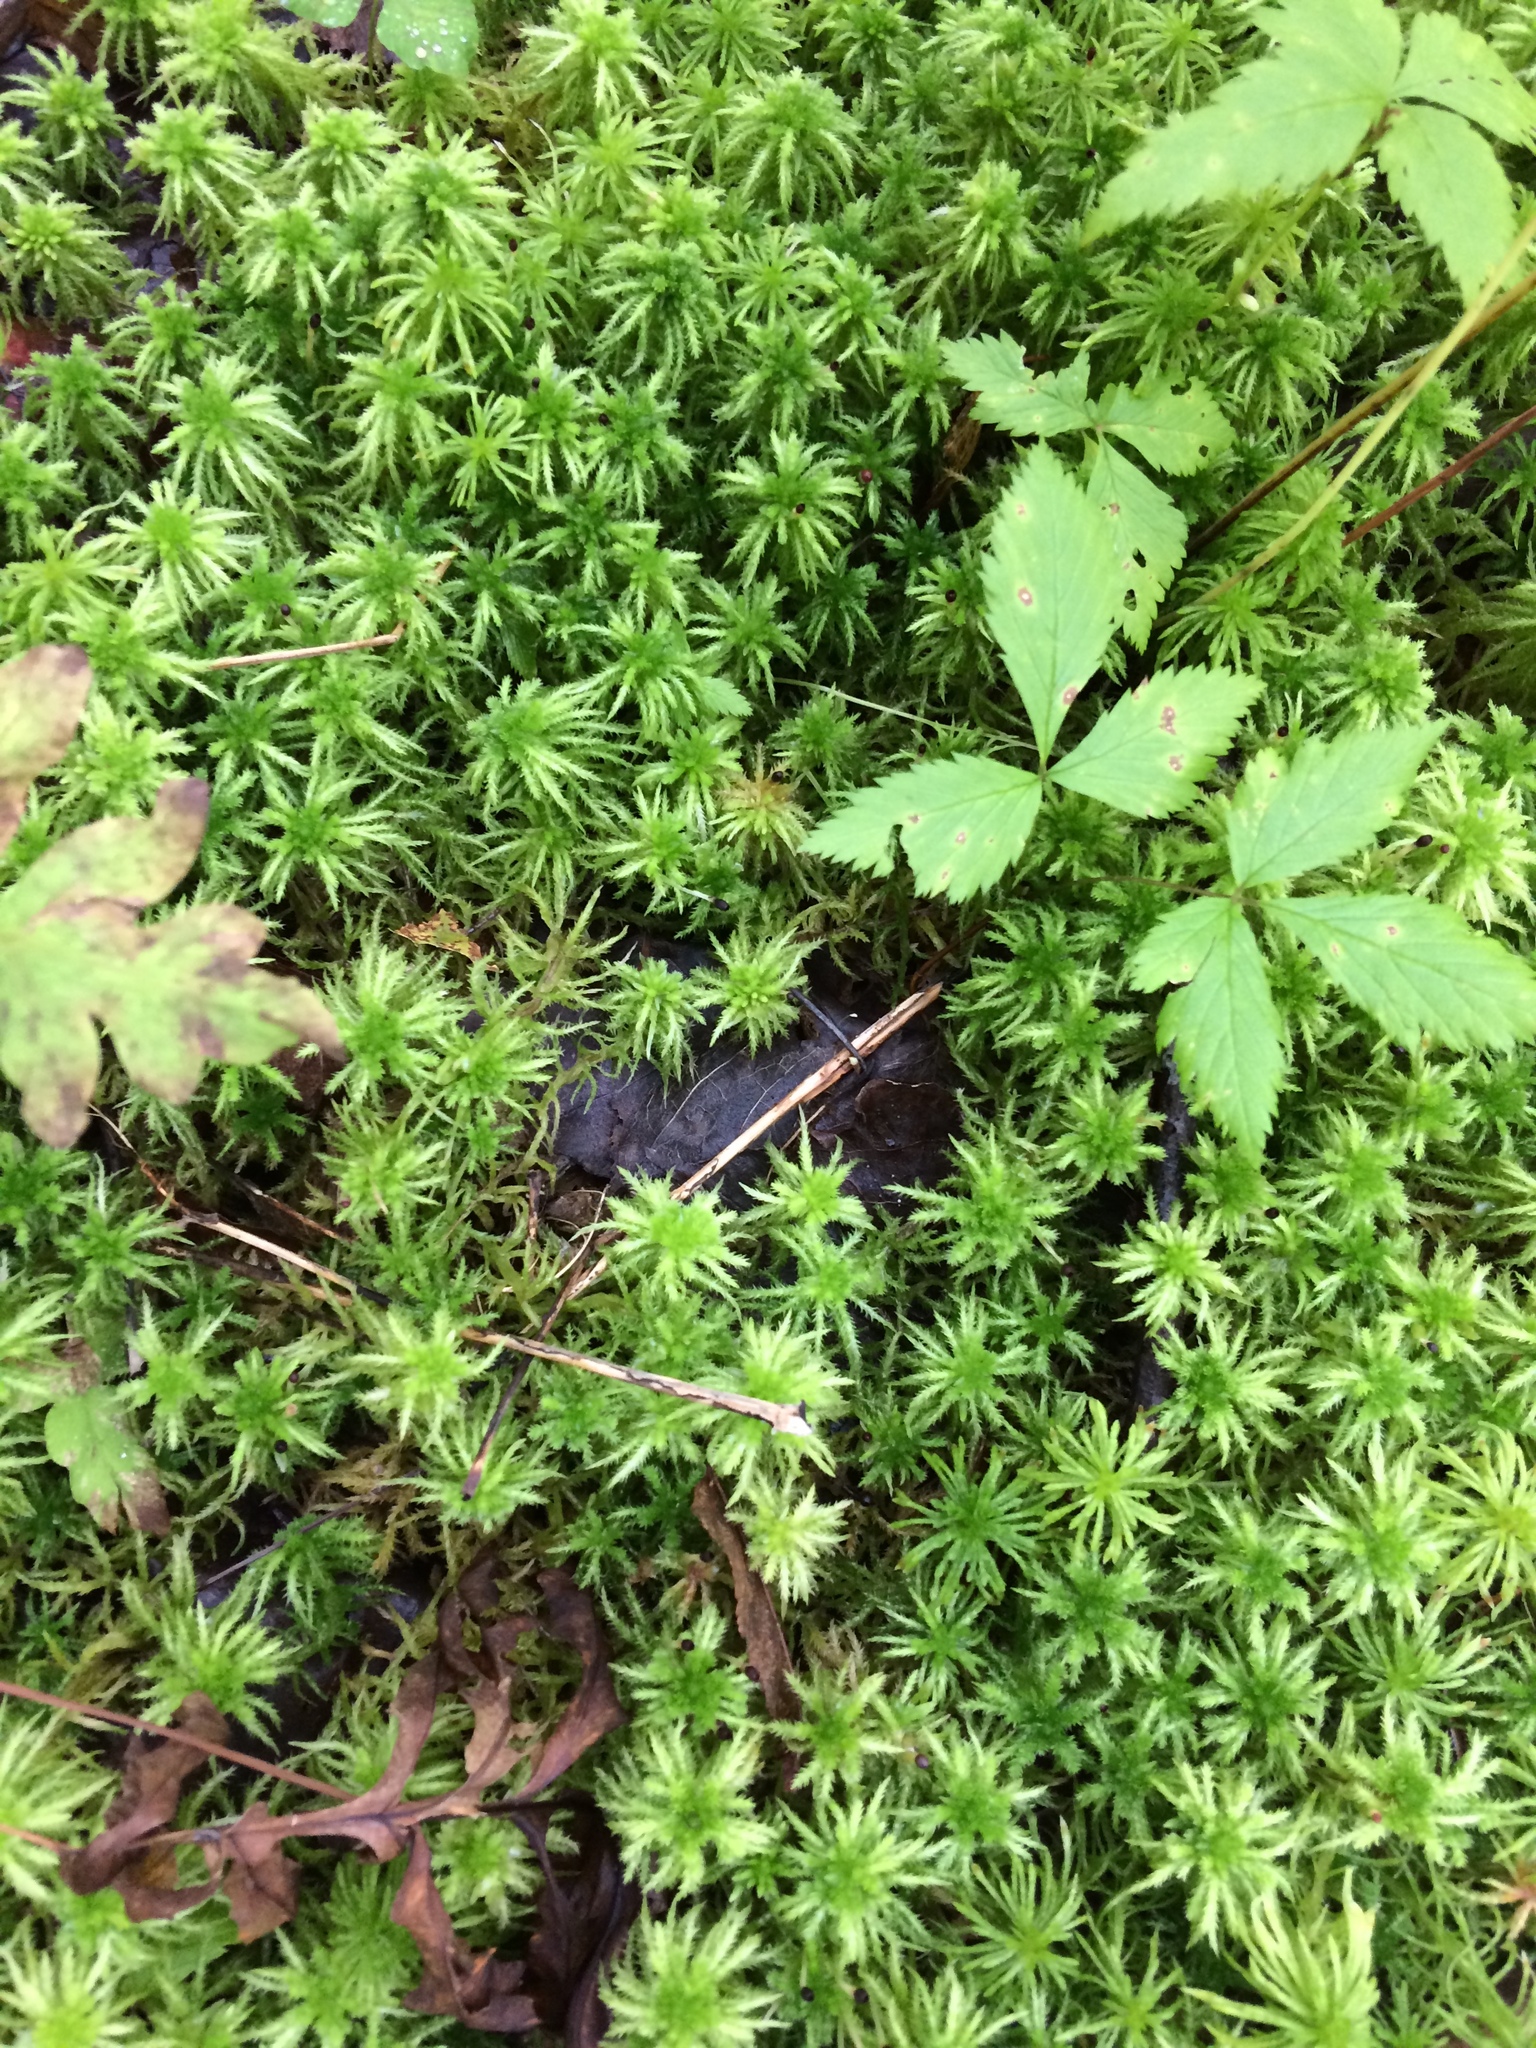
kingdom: Plantae
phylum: Tracheophyta
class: Magnoliopsida
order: Rosales
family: Rosaceae
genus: Rubus
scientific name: Rubus pubescens
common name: Dwarf raspberry
